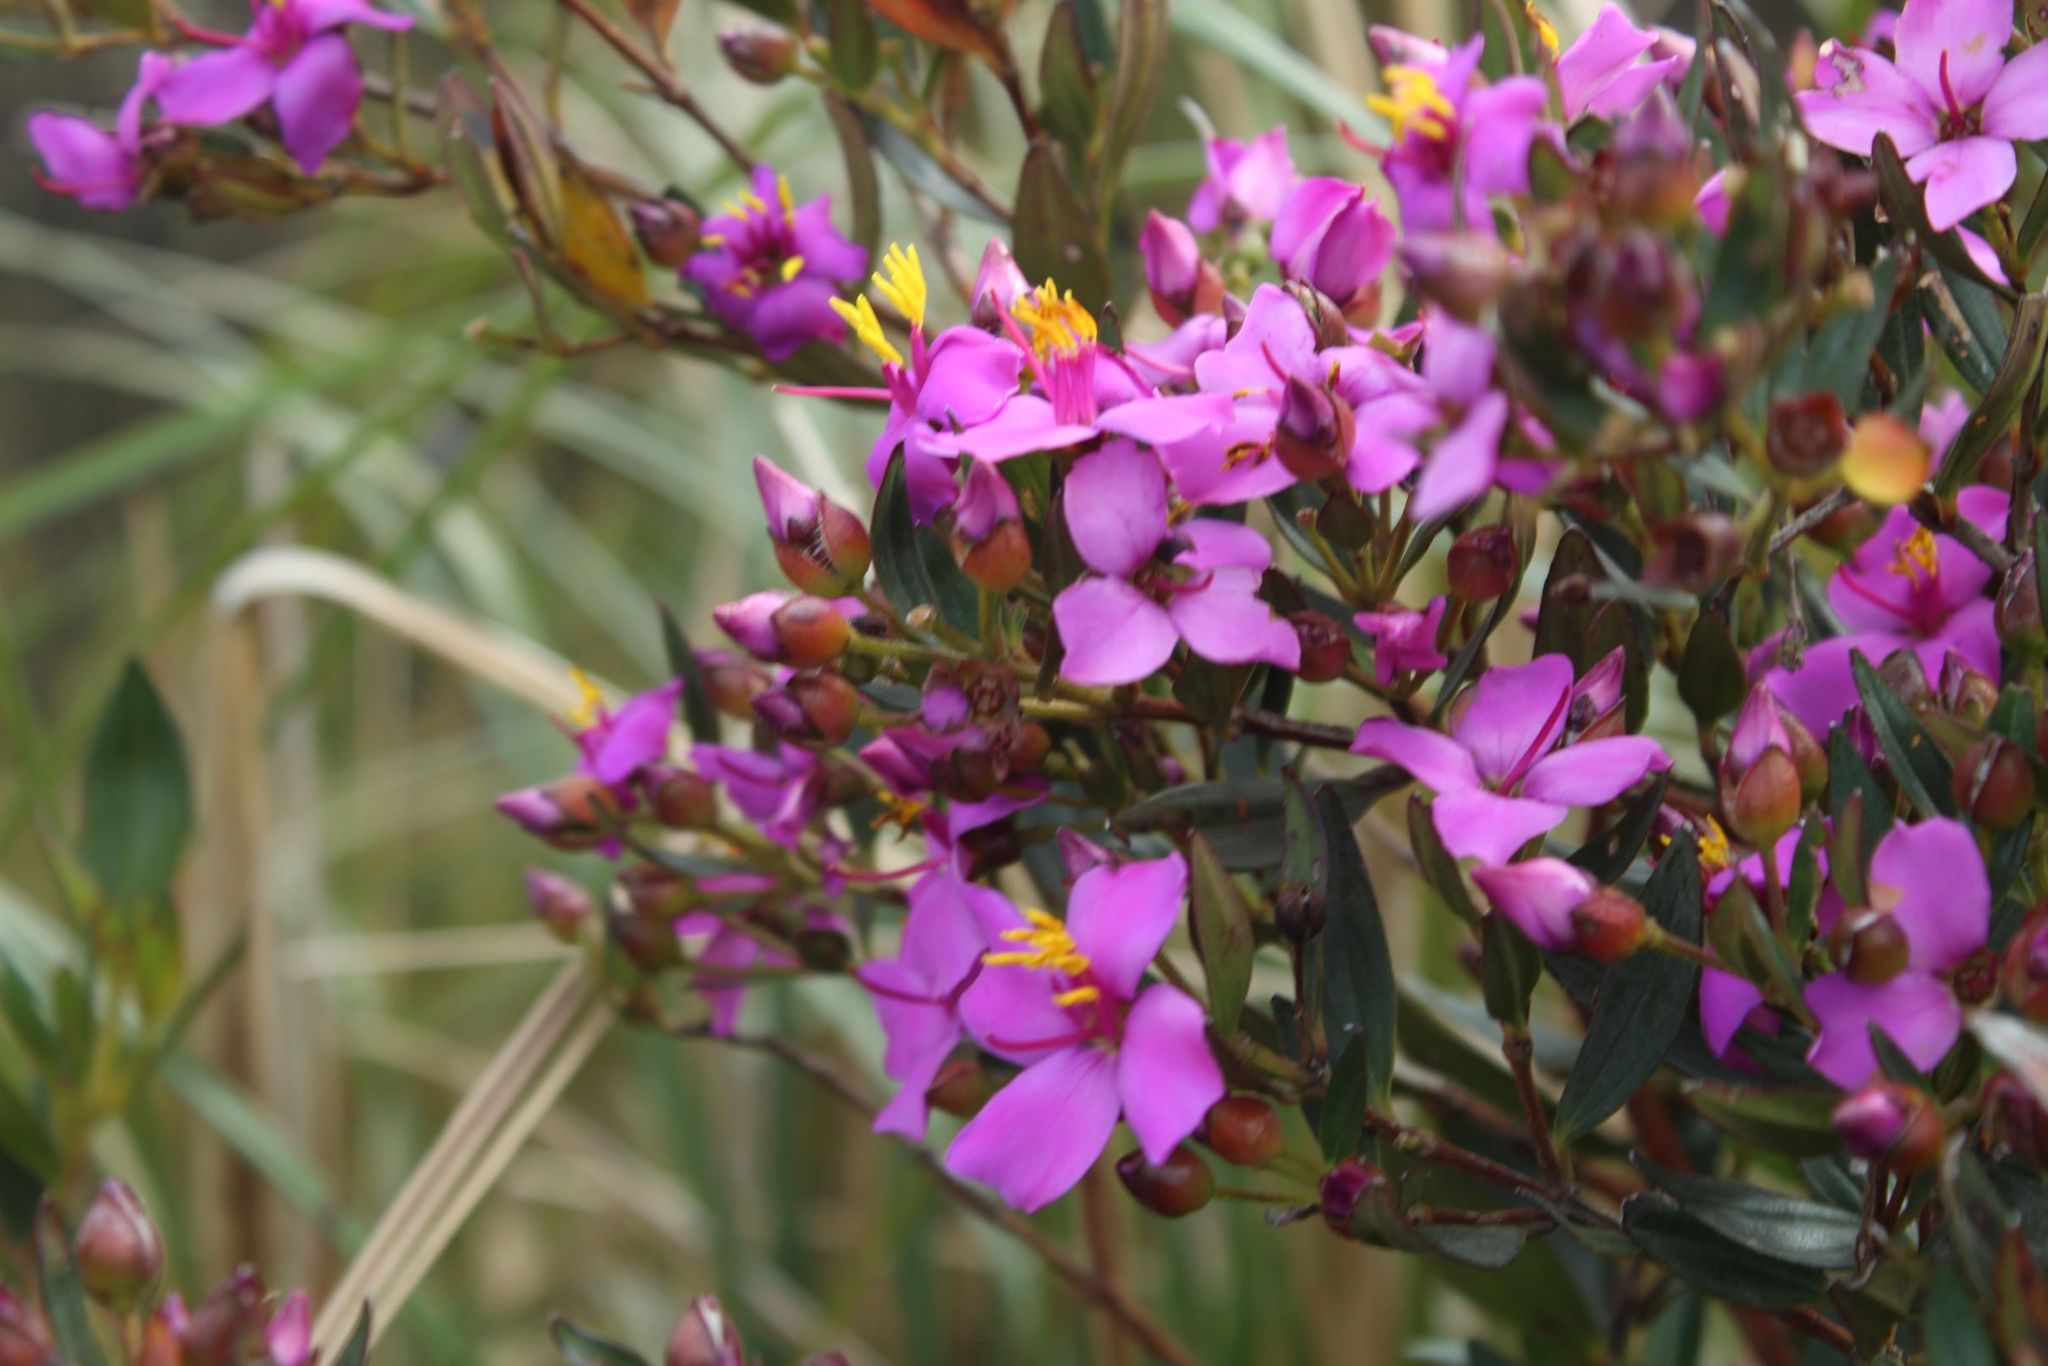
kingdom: Plantae
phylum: Tracheophyta
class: Magnoliopsida
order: Myrtales
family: Melastomataceae
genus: Bucquetia
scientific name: Bucquetia glutinosa
